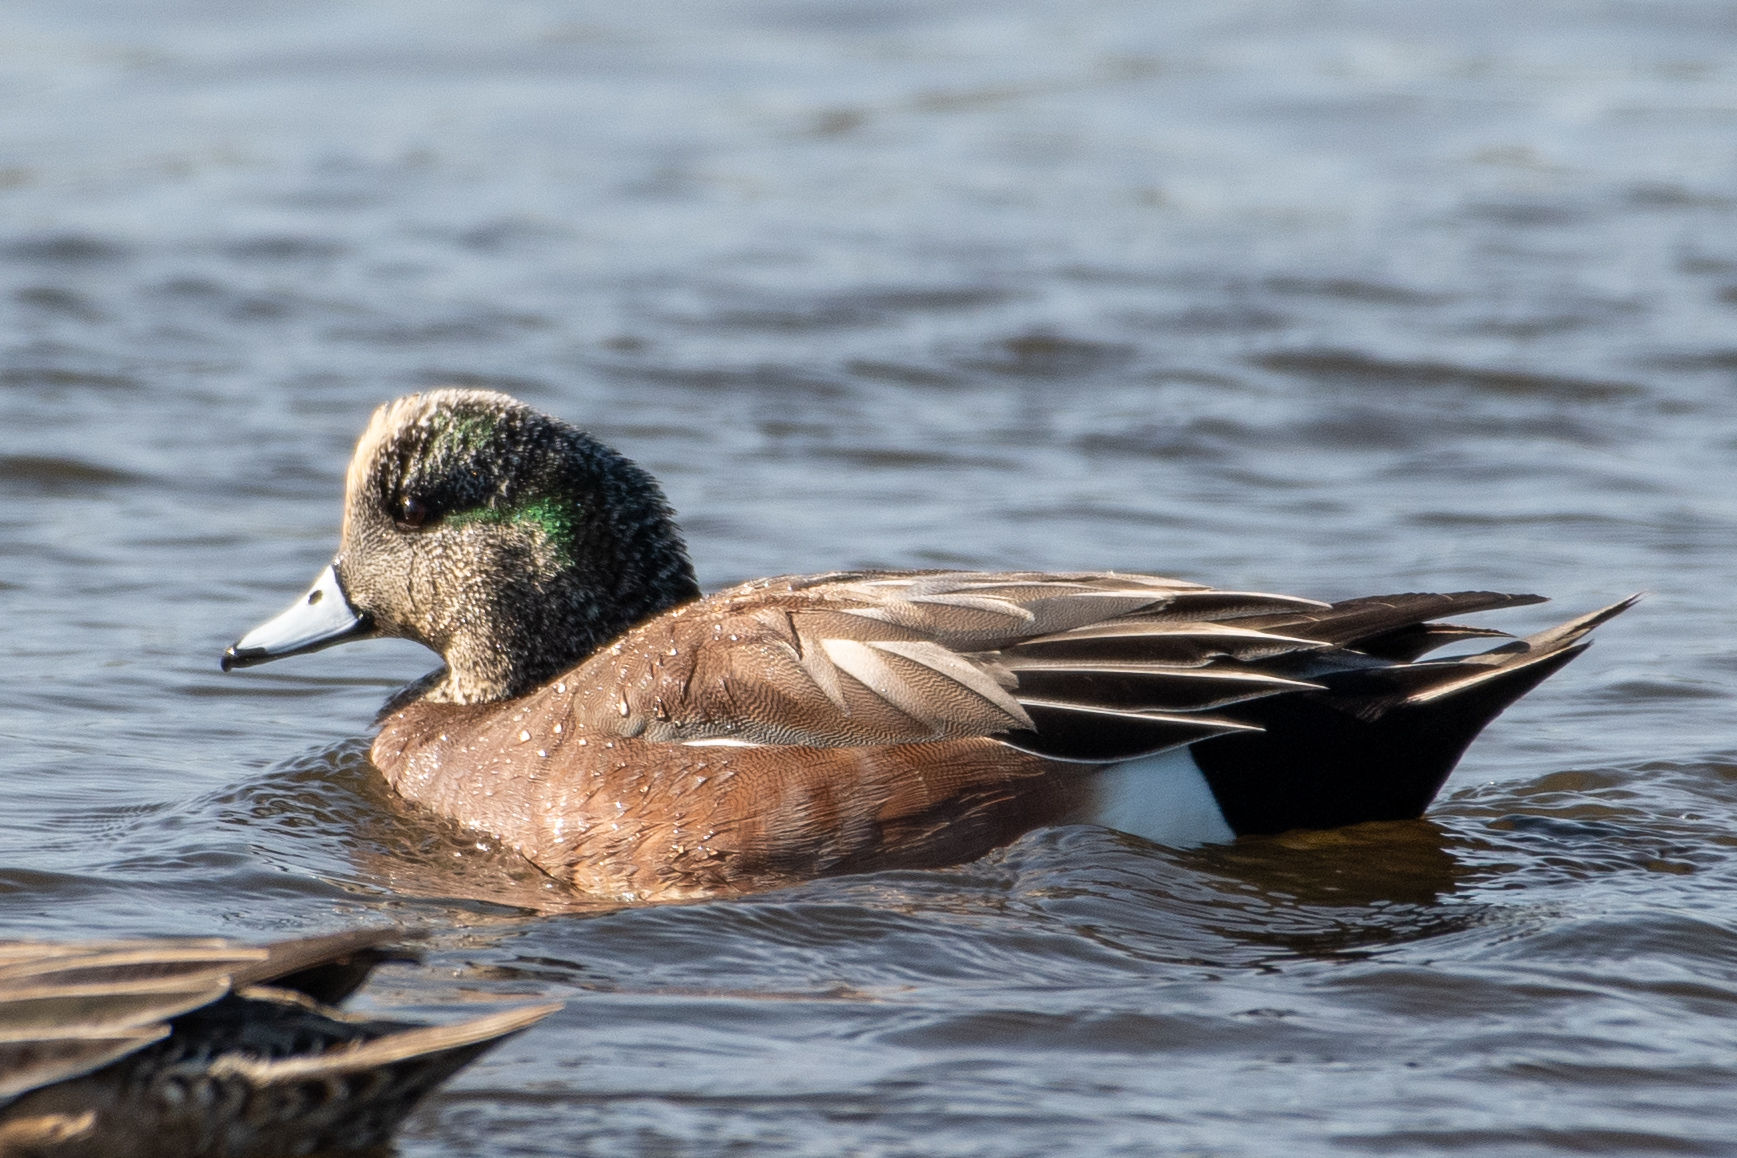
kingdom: Animalia
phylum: Chordata
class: Aves
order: Anseriformes
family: Anatidae
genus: Mareca
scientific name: Mareca americana
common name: American wigeon
